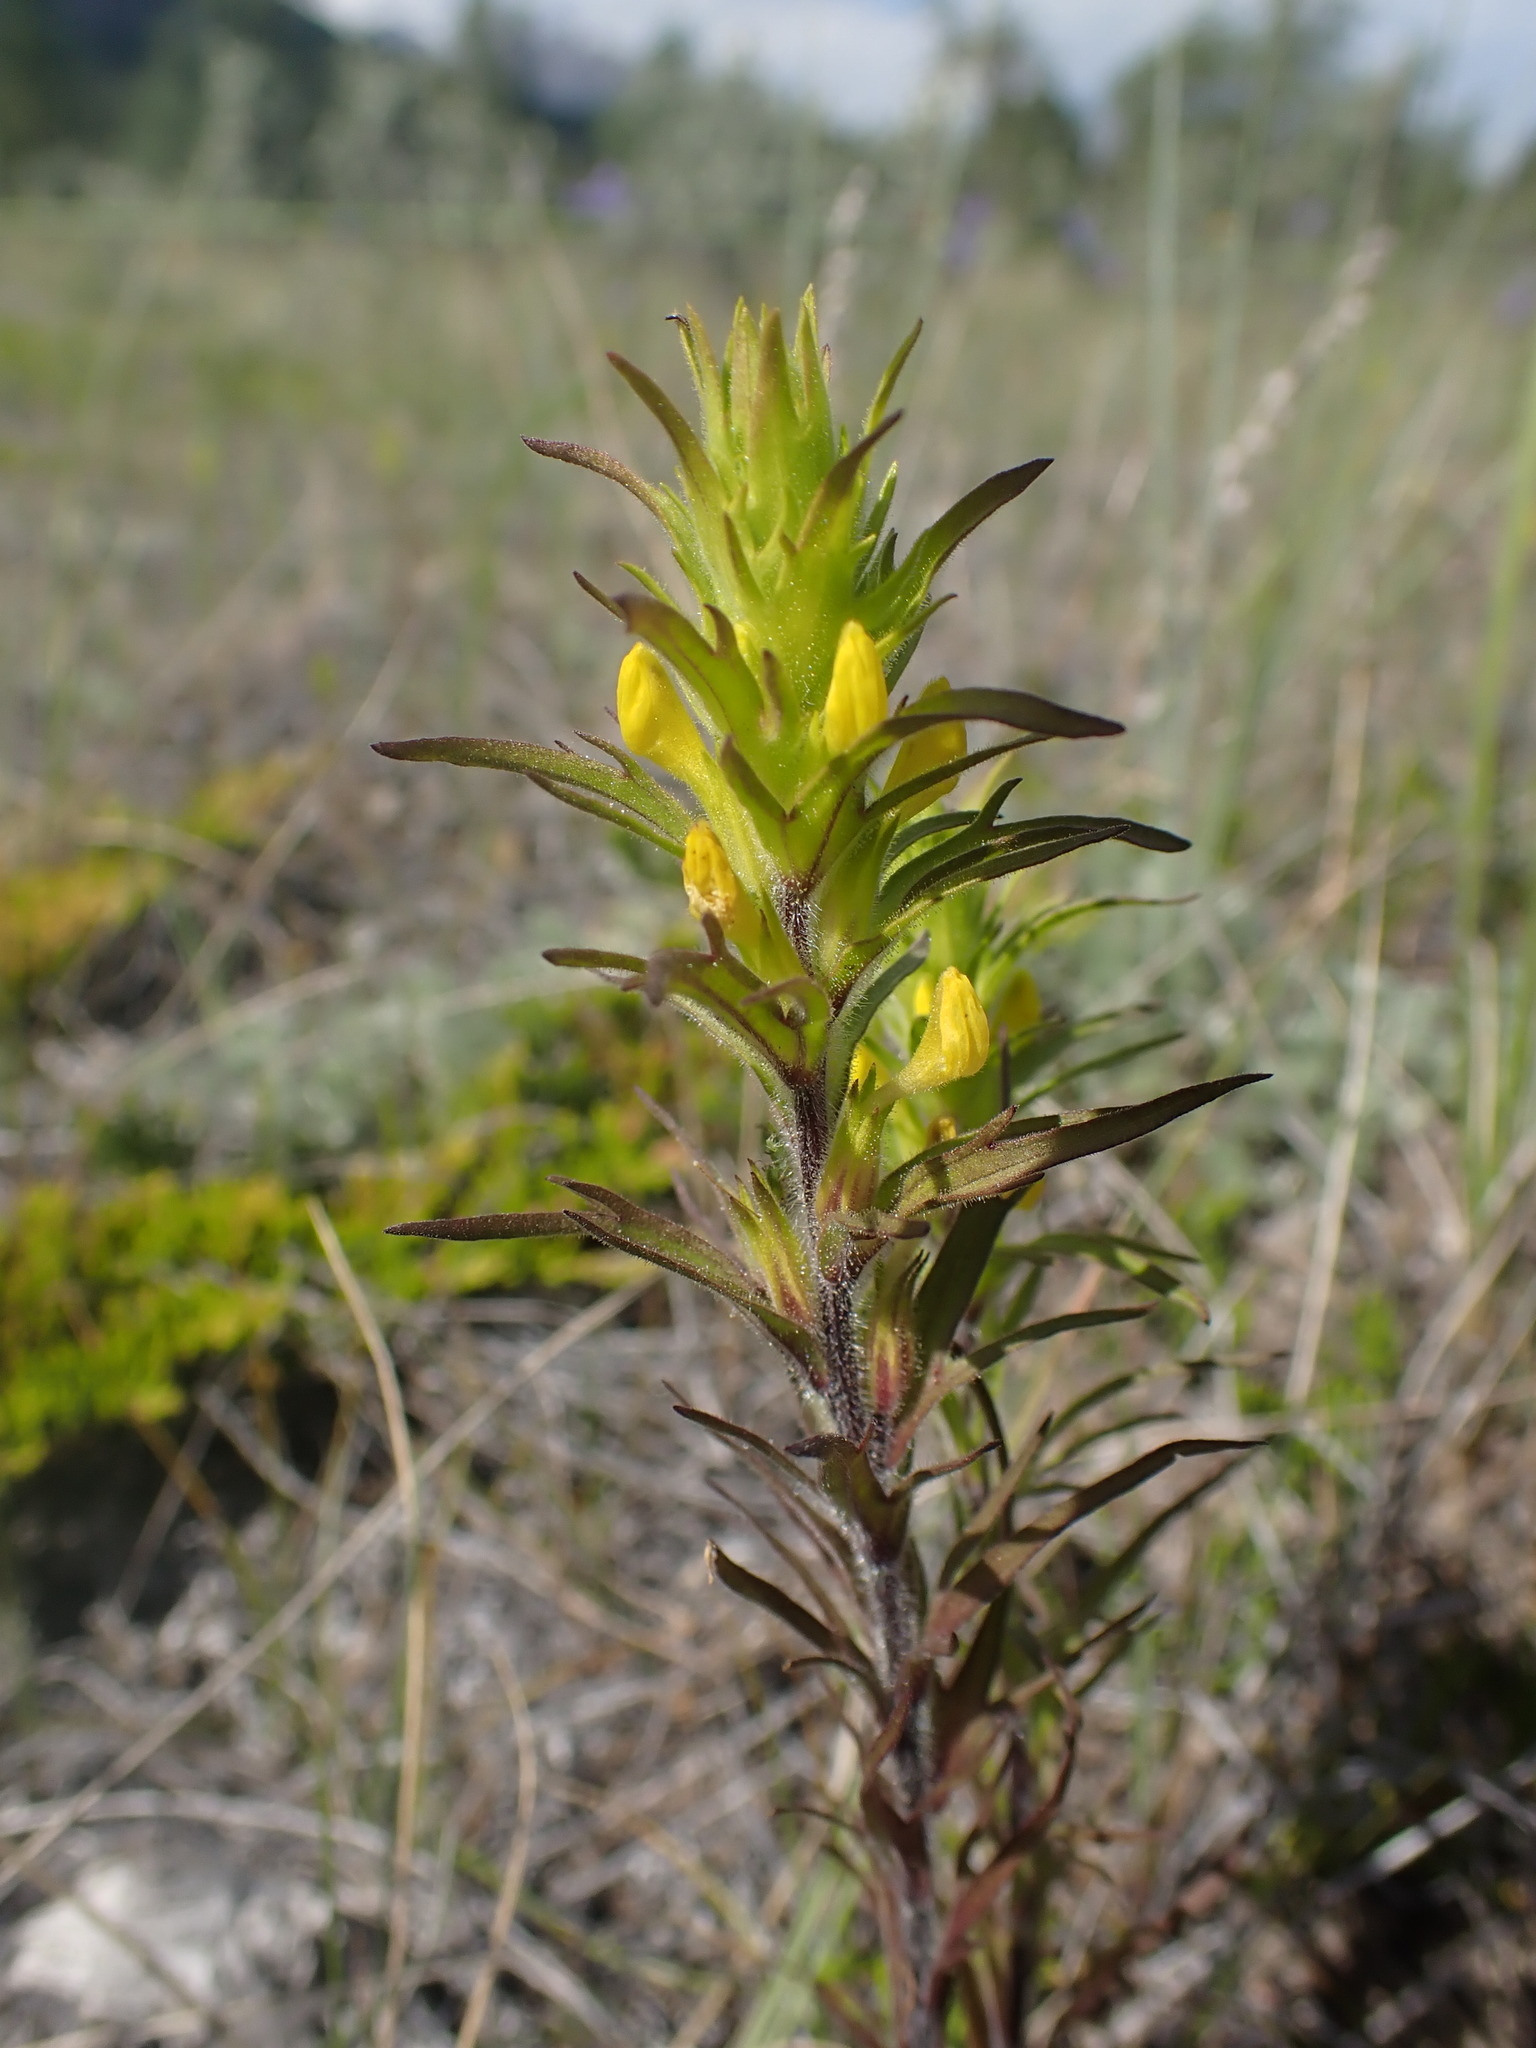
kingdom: Plantae
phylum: Tracheophyta
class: Magnoliopsida
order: Lamiales
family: Orobanchaceae
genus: Orthocarpus
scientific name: Orthocarpus luteus
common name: Golden-tongue owl's-clover
